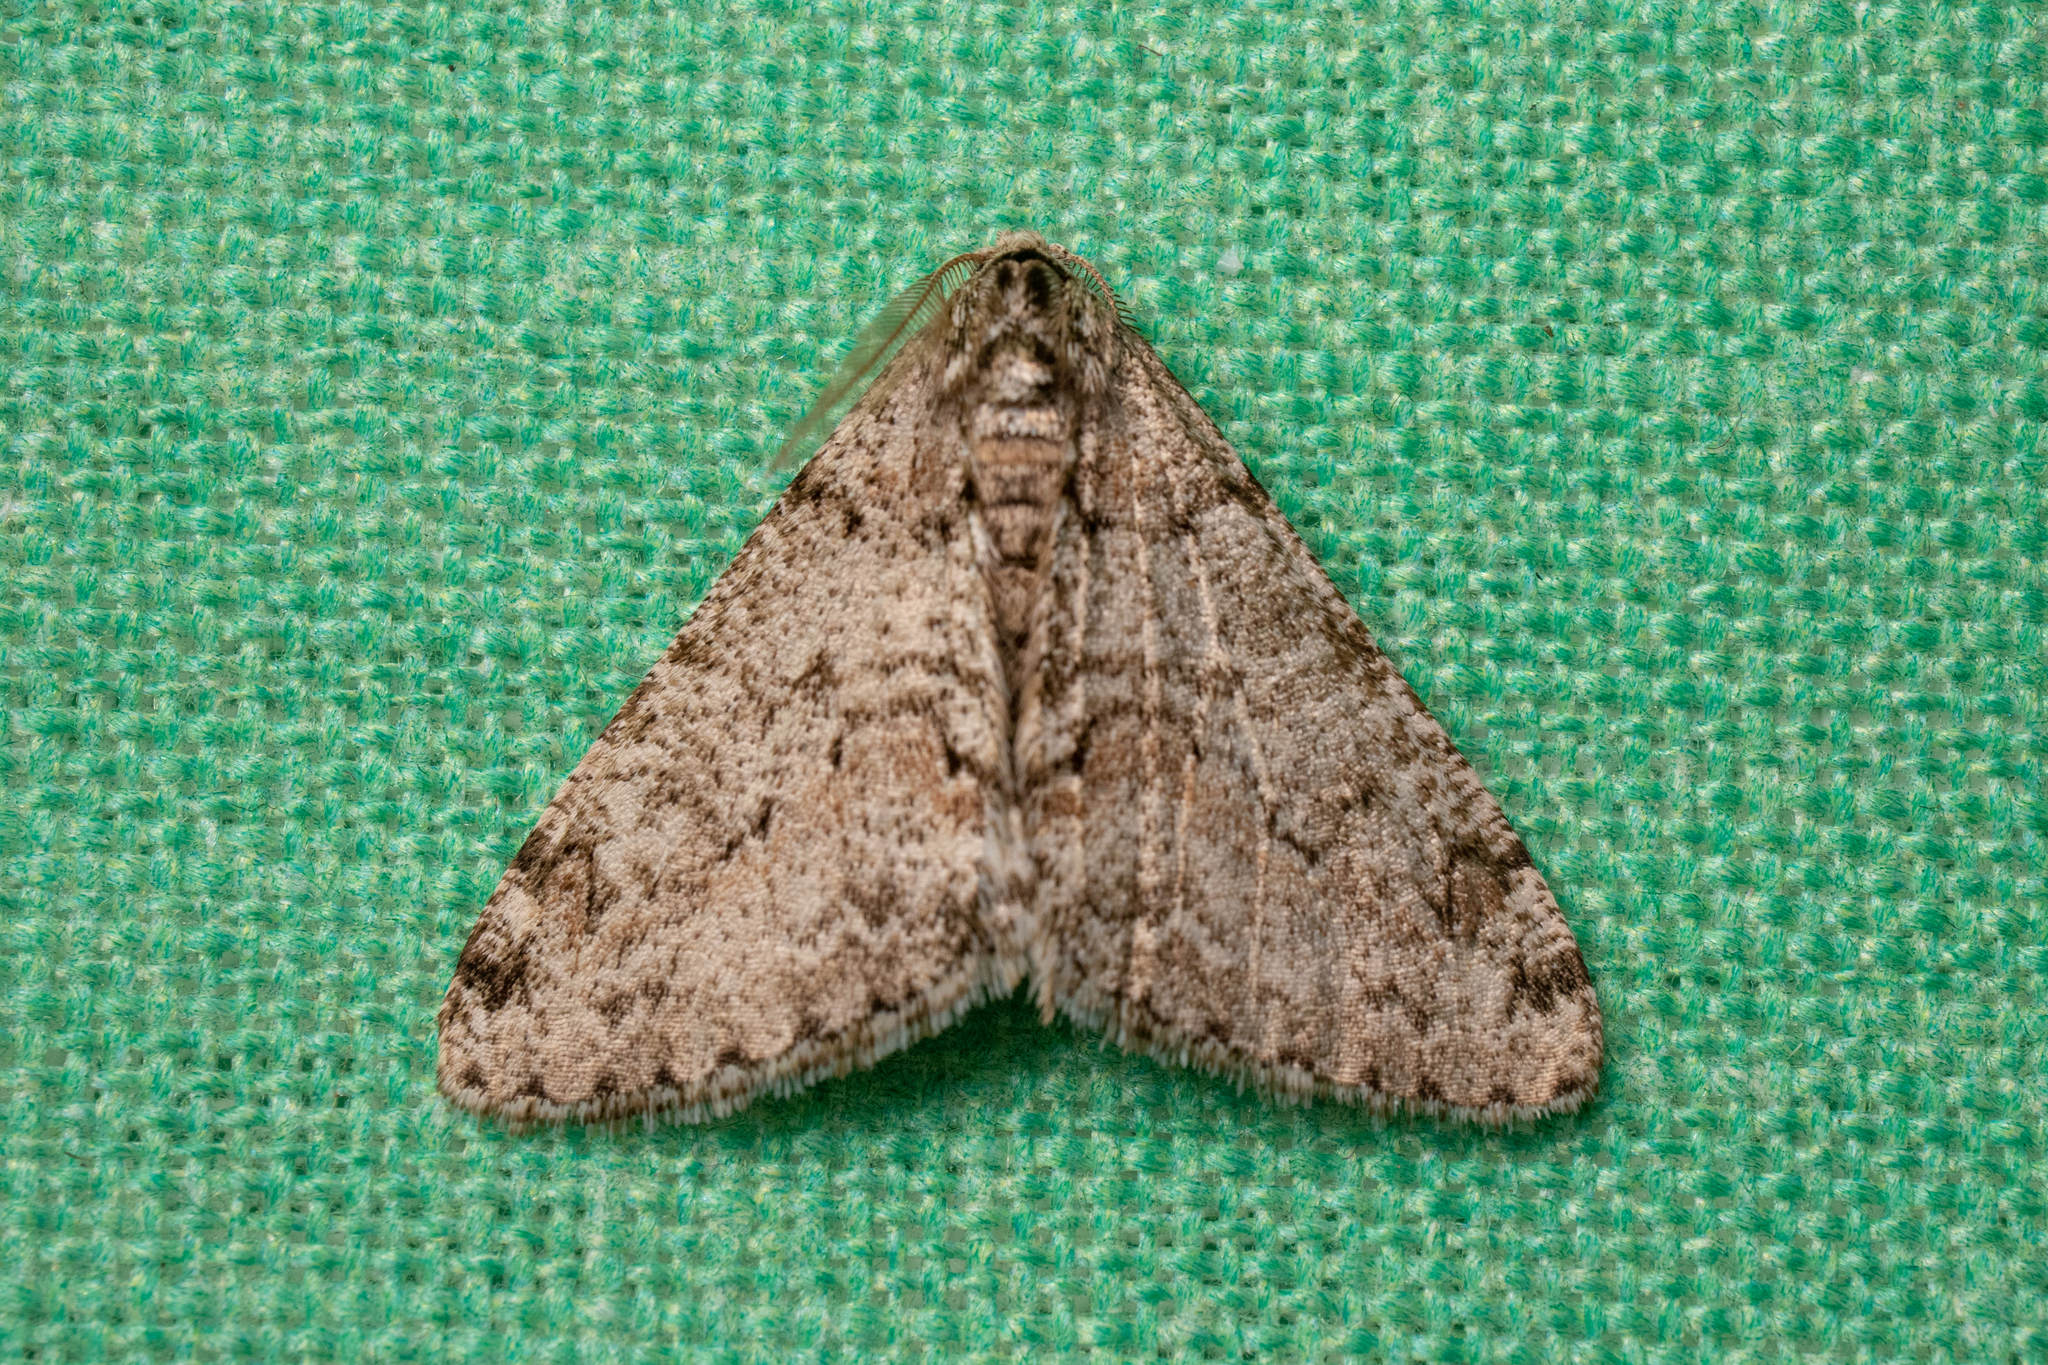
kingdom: Animalia
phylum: Arthropoda
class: Insecta
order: Lepidoptera
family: Geometridae
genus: Phigalia
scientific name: Phigalia strigataria
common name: Small phigalia
